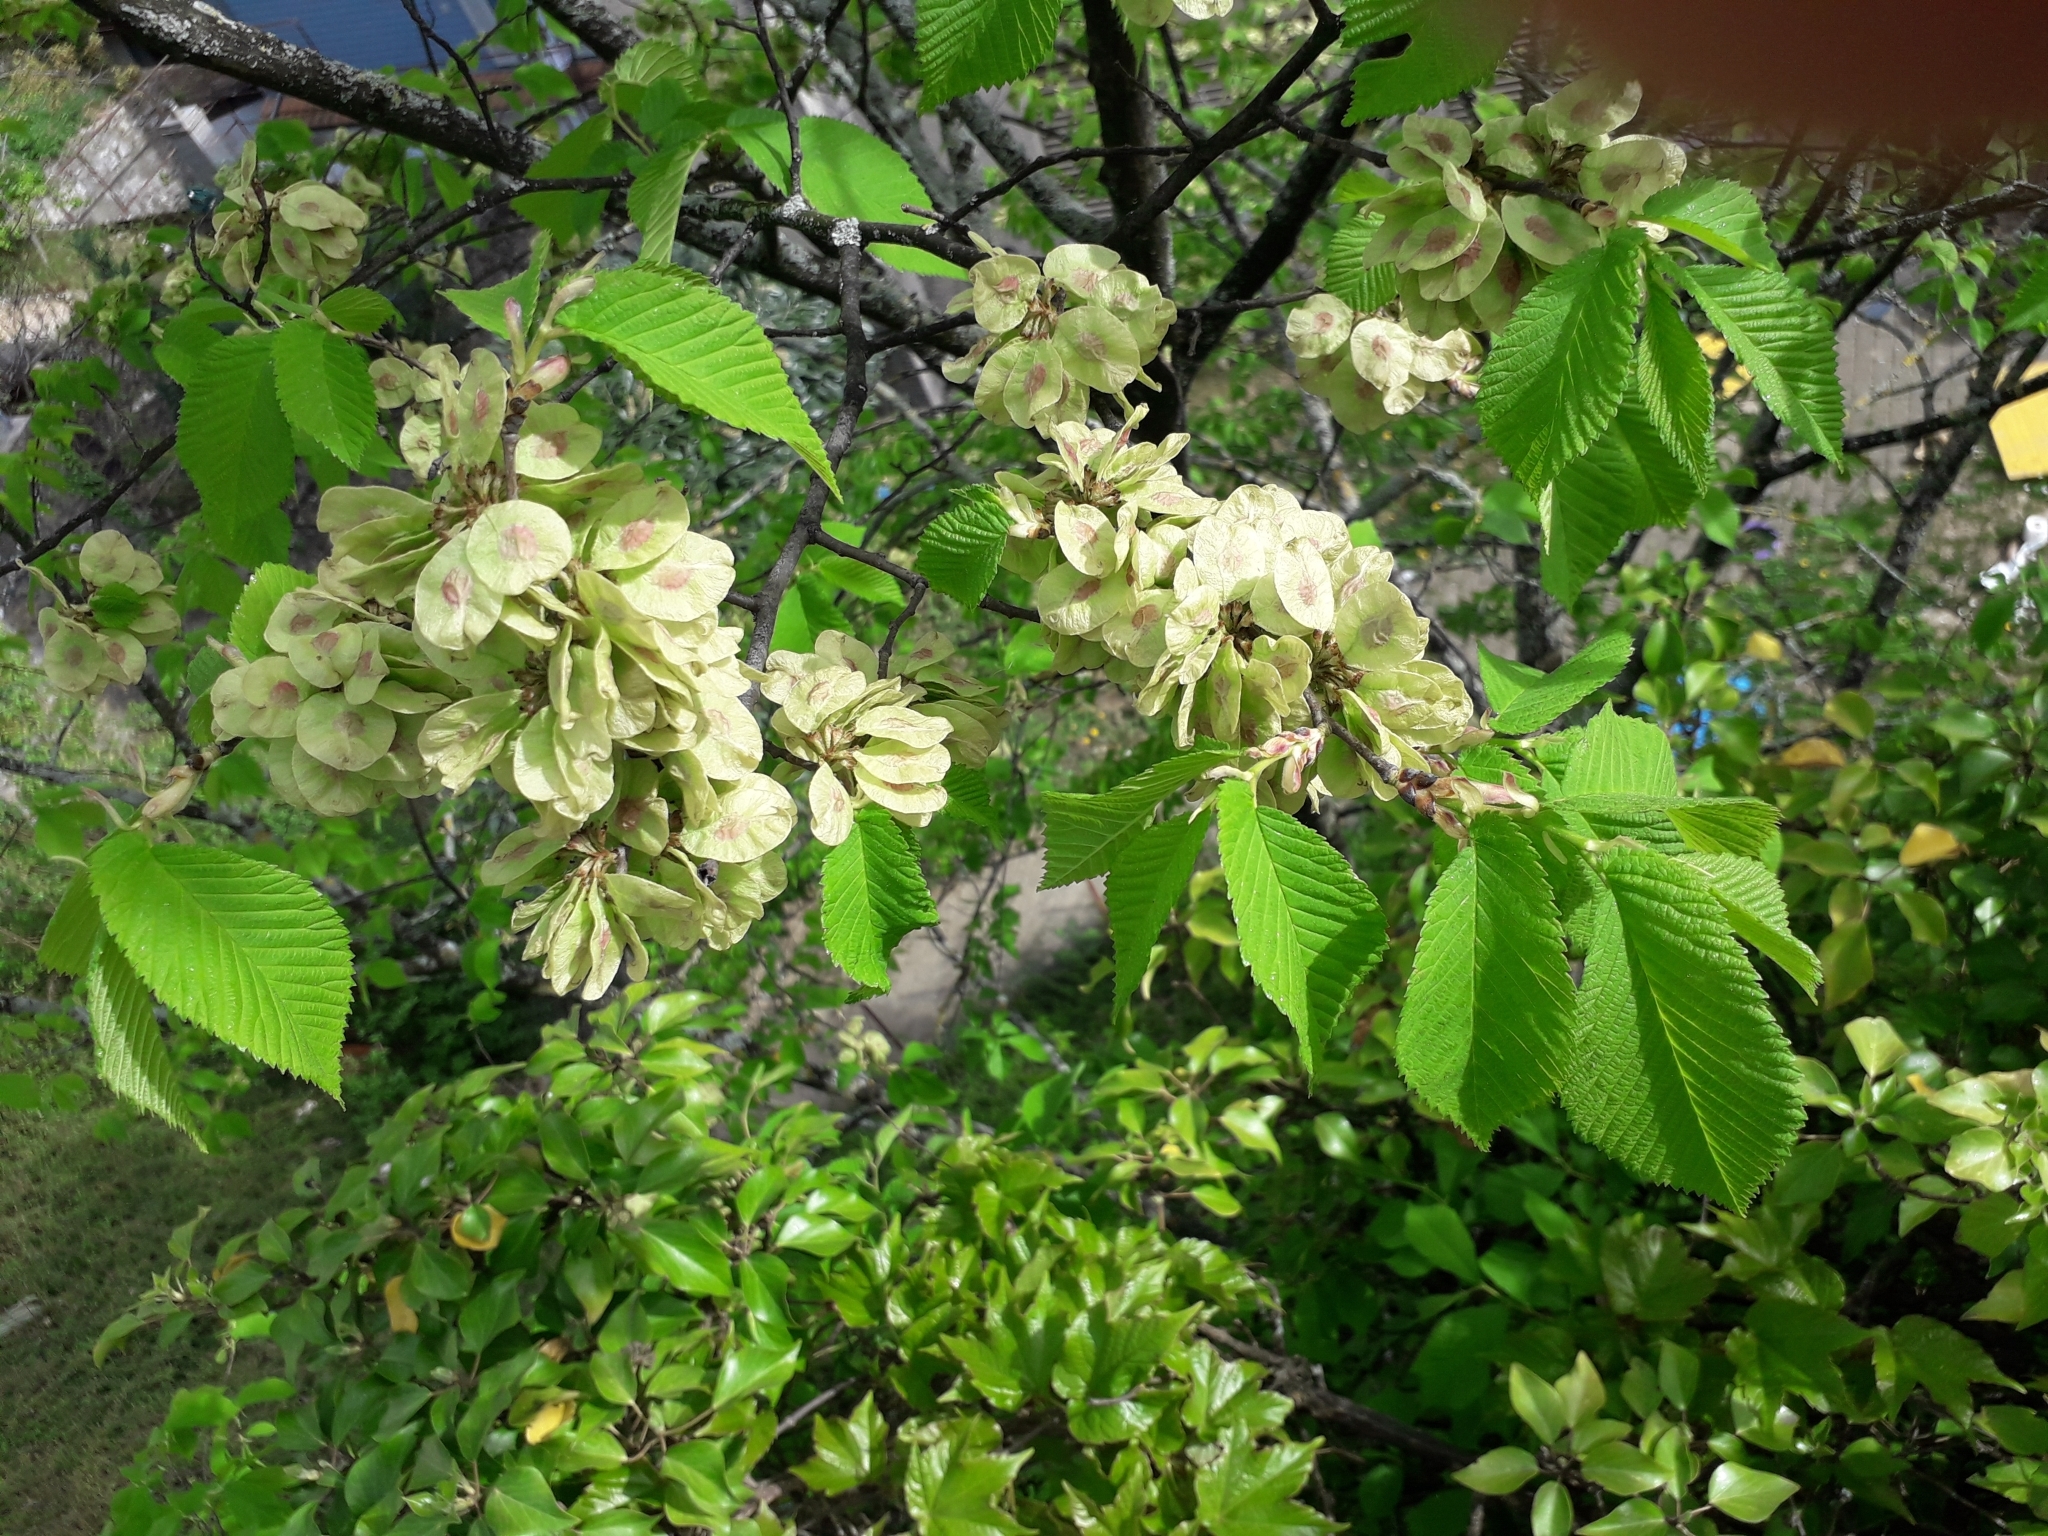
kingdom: Plantae
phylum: Tracheophyta
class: Magnoliopsida
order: Rosales
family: Ulmaceae
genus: Ulmus
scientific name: Ulmus glabra
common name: Wych elm
